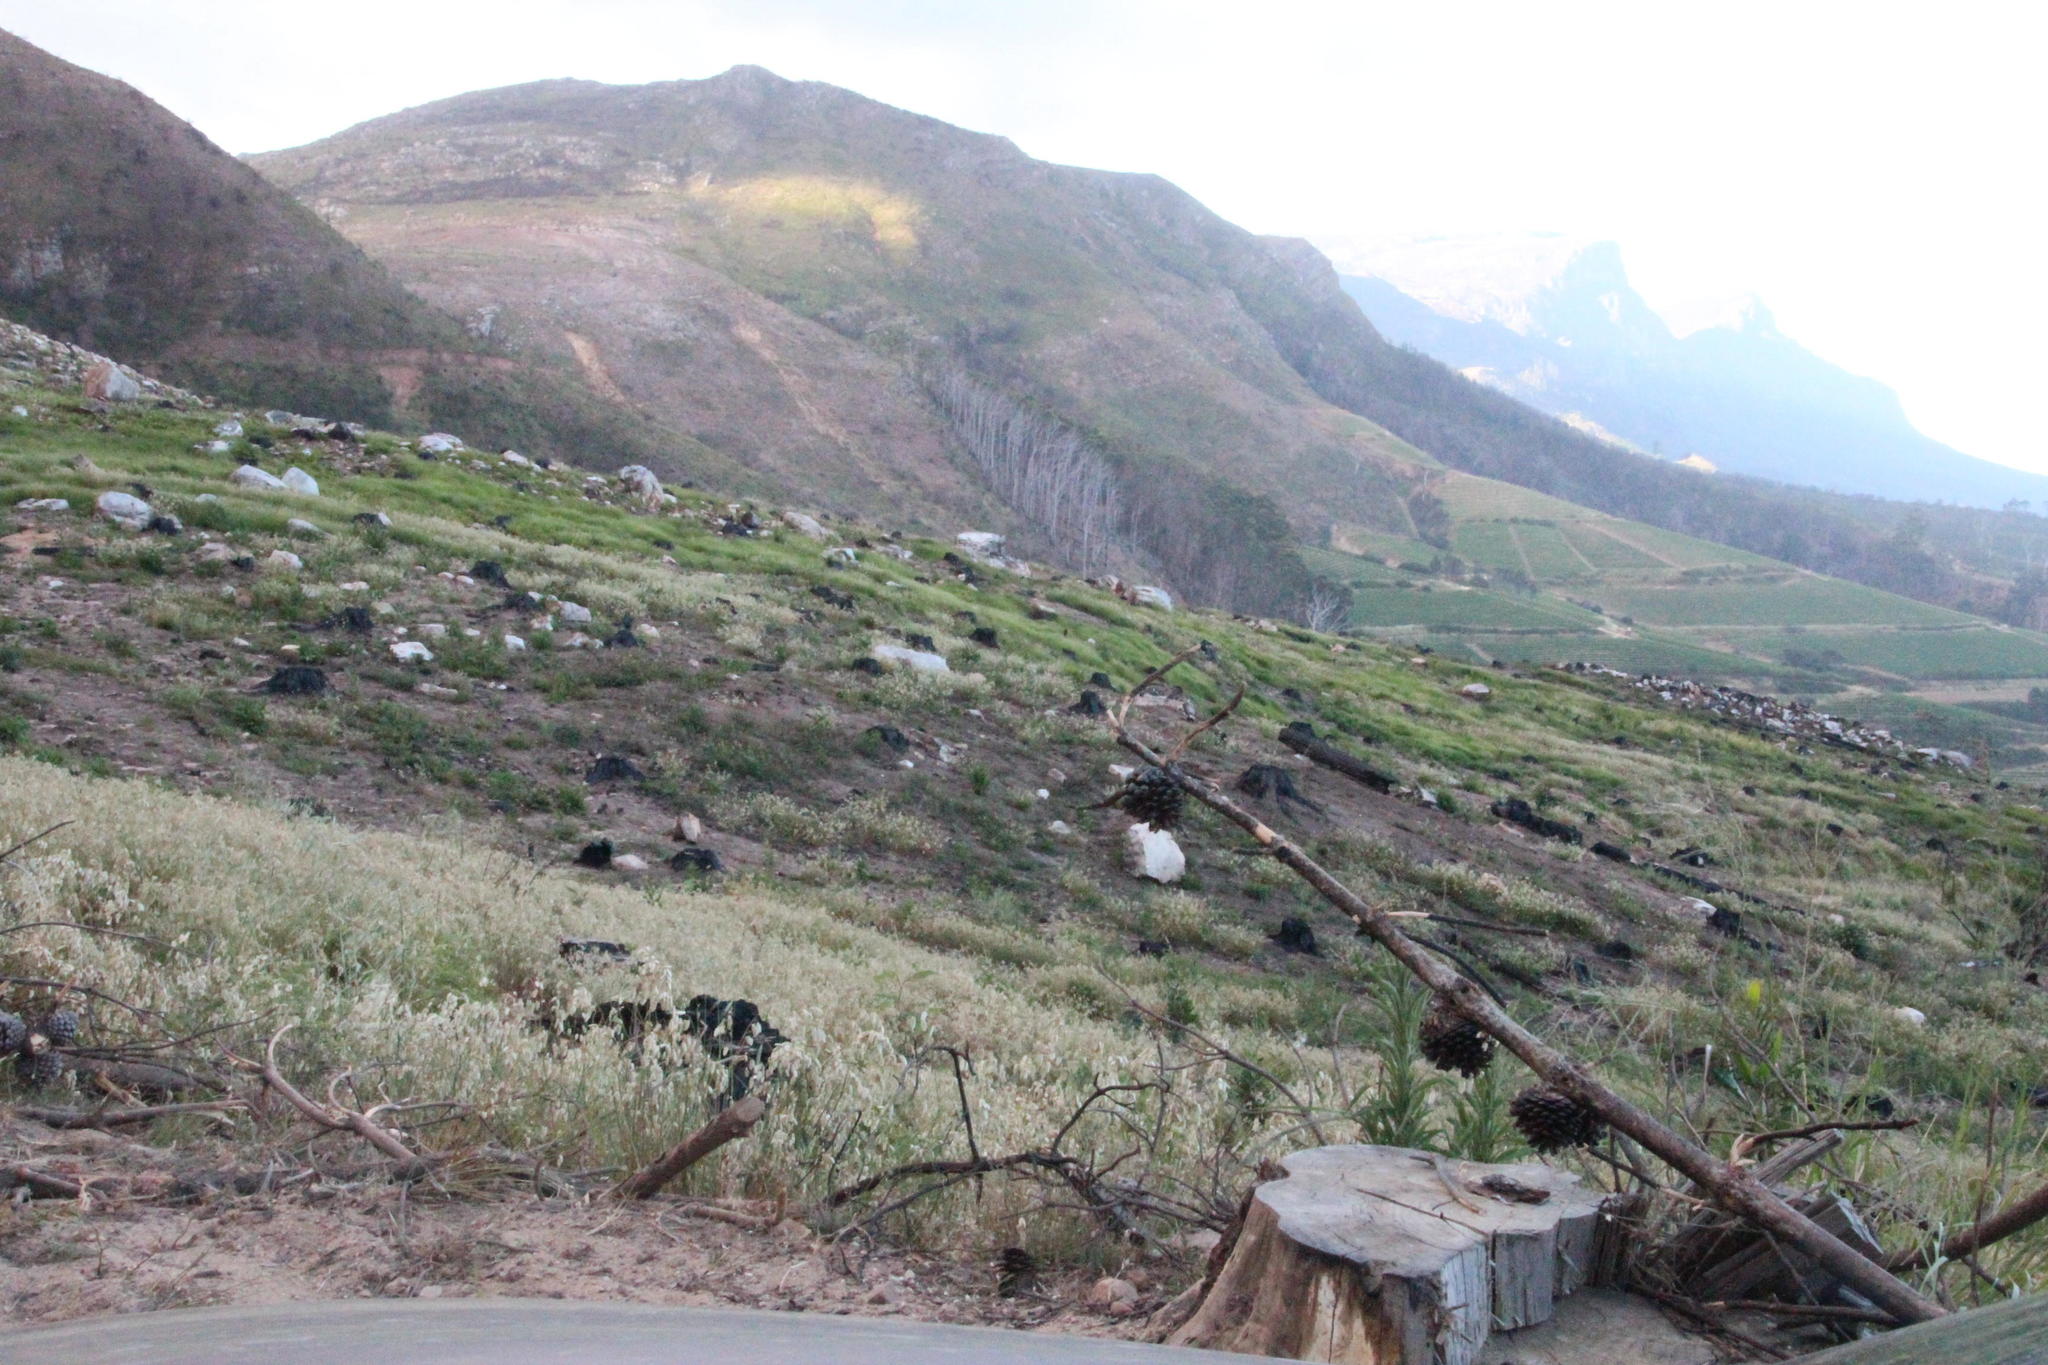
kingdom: Plantae
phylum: Tracheophyta
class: Liliopsida
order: Poales
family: Poaceae
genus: Briza
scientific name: Briza maxima
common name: Big quakinggrass
